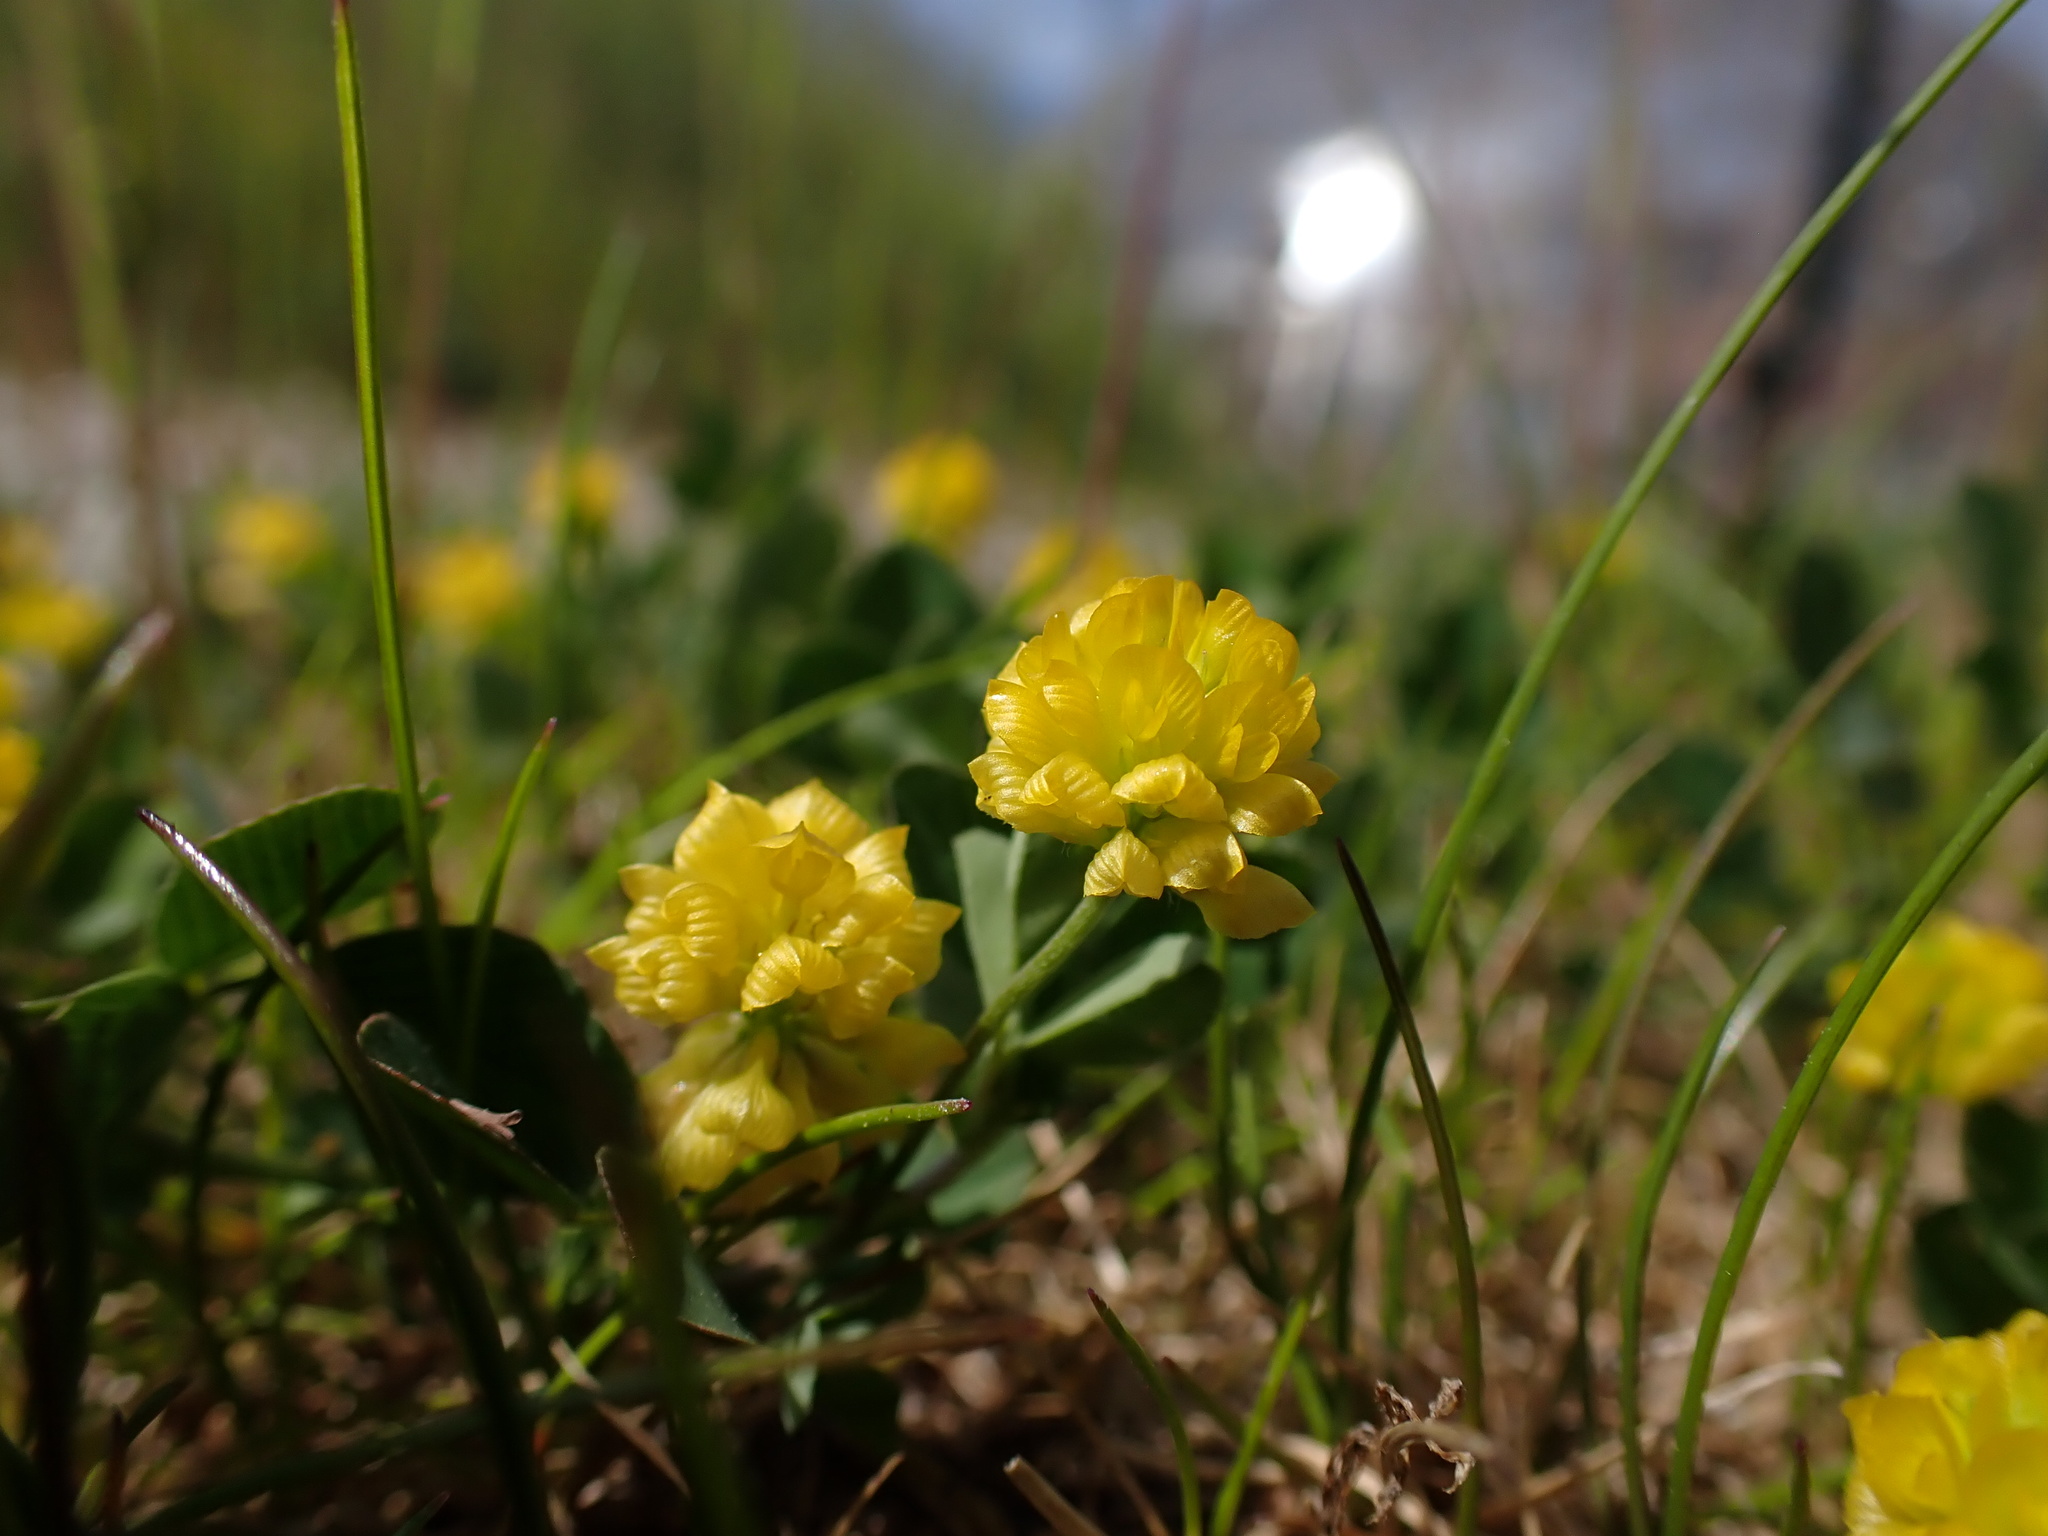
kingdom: Plantae
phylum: Tracheophyta
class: Magnoliopsida
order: Fabales
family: Fabaceae
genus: Trifolium
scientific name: Trifolium campestre
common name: Field clover
